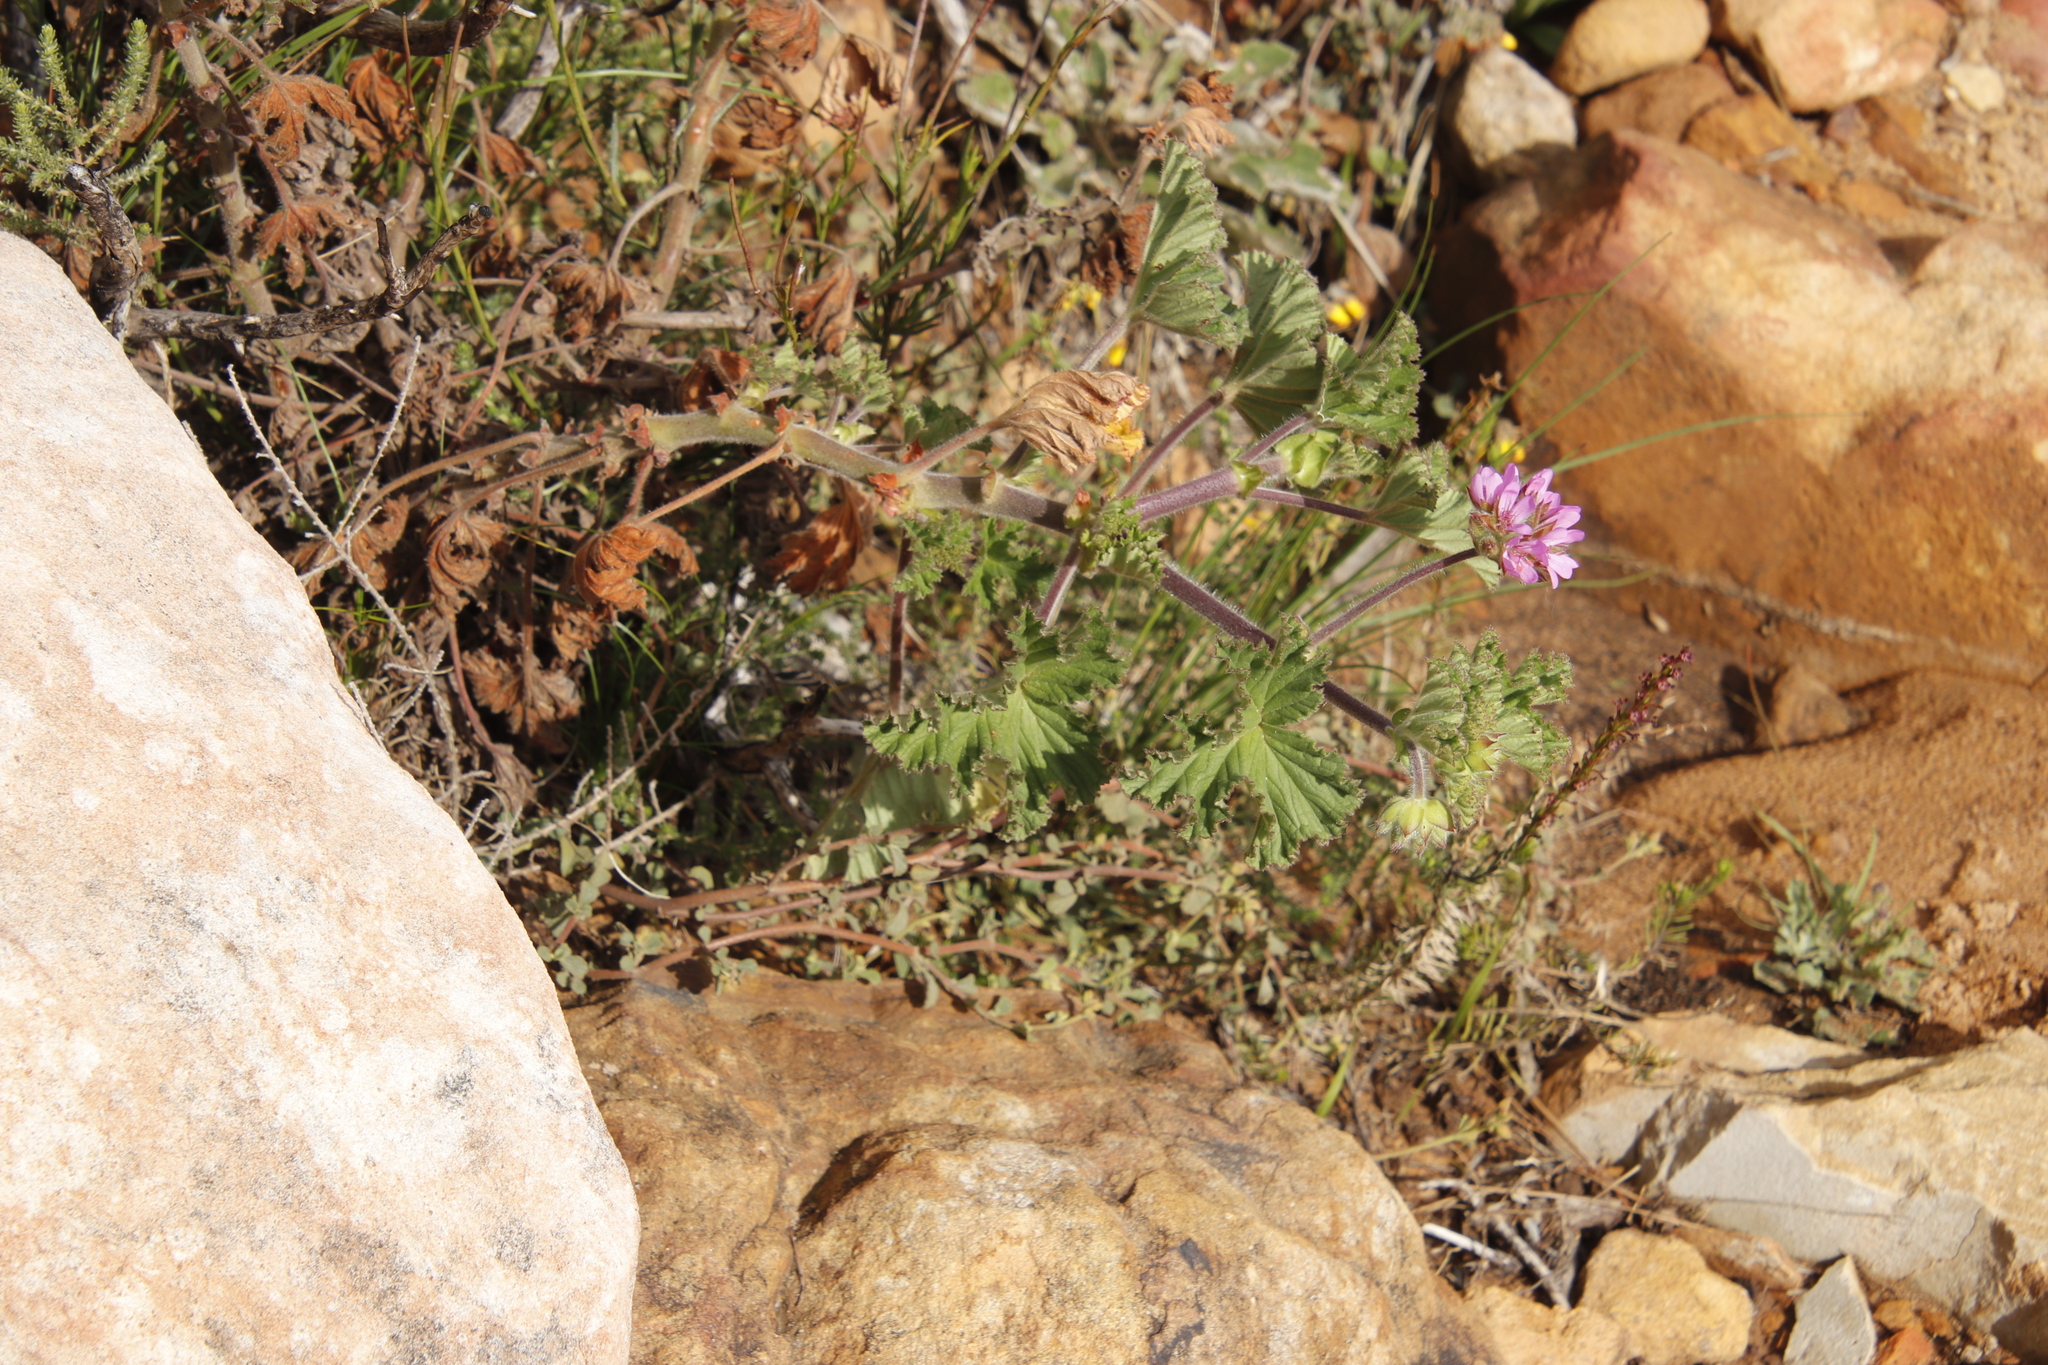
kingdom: Plantae
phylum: Tracheophyta
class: Magnoliopsida
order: Geraniales
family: Geraniaceae
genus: Pelargonium
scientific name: Pelargonium capitatum
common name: Rose scented geranium
